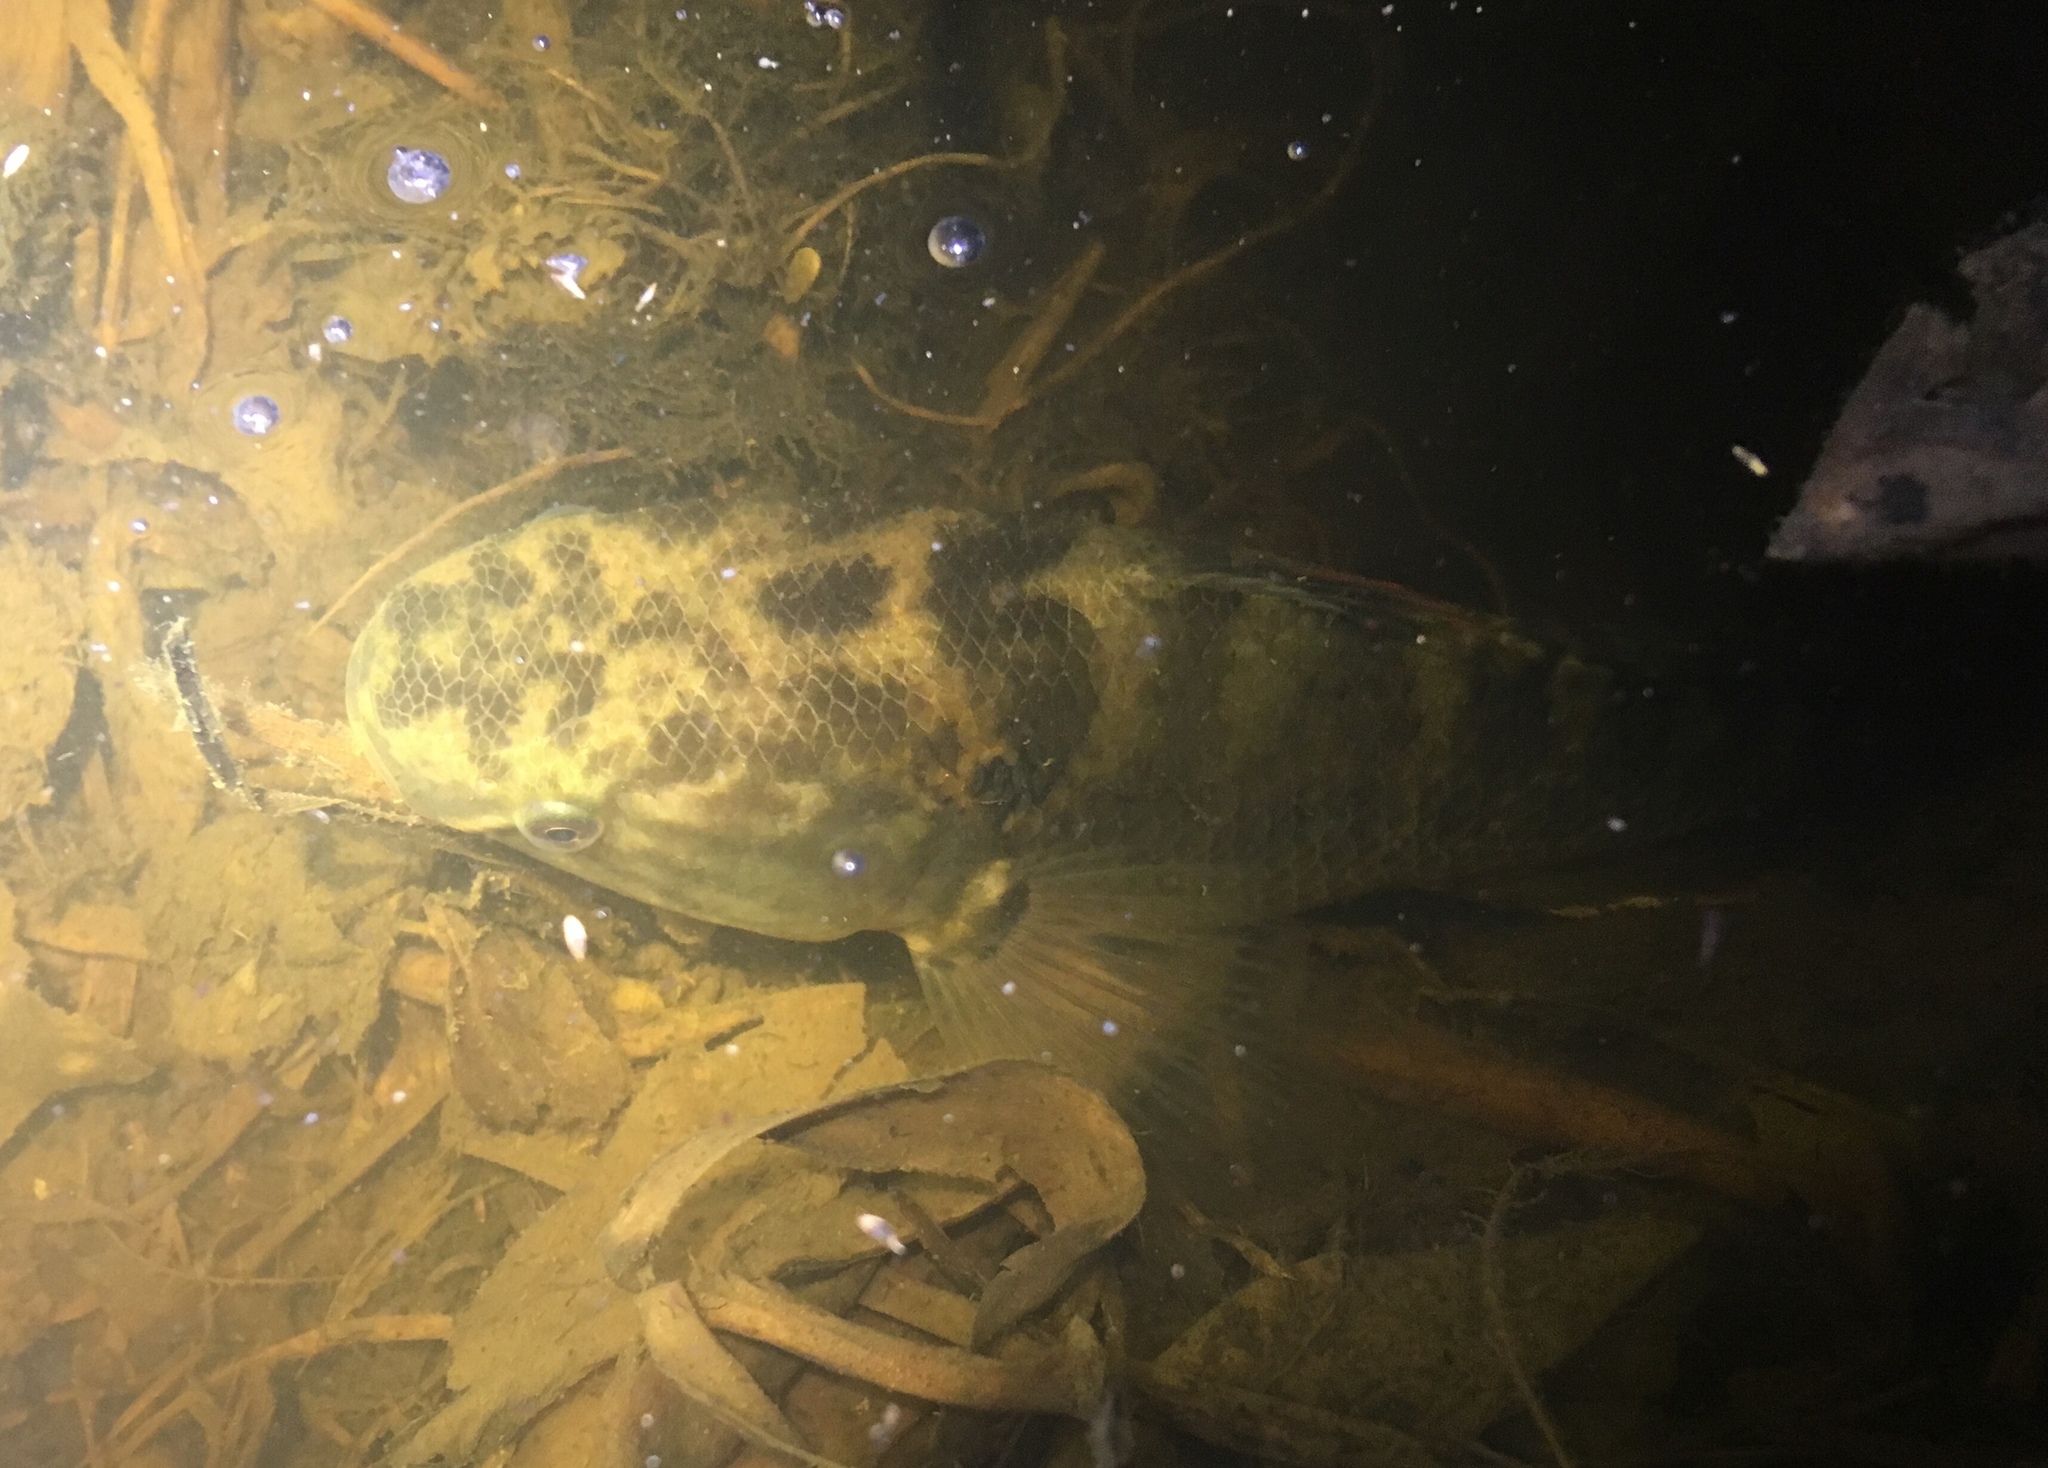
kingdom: Animalia
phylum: Chordata
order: Perciformes
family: Eleotridae
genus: Dormitator
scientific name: Dormitator latifrons
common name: Pacific fat sleeper
